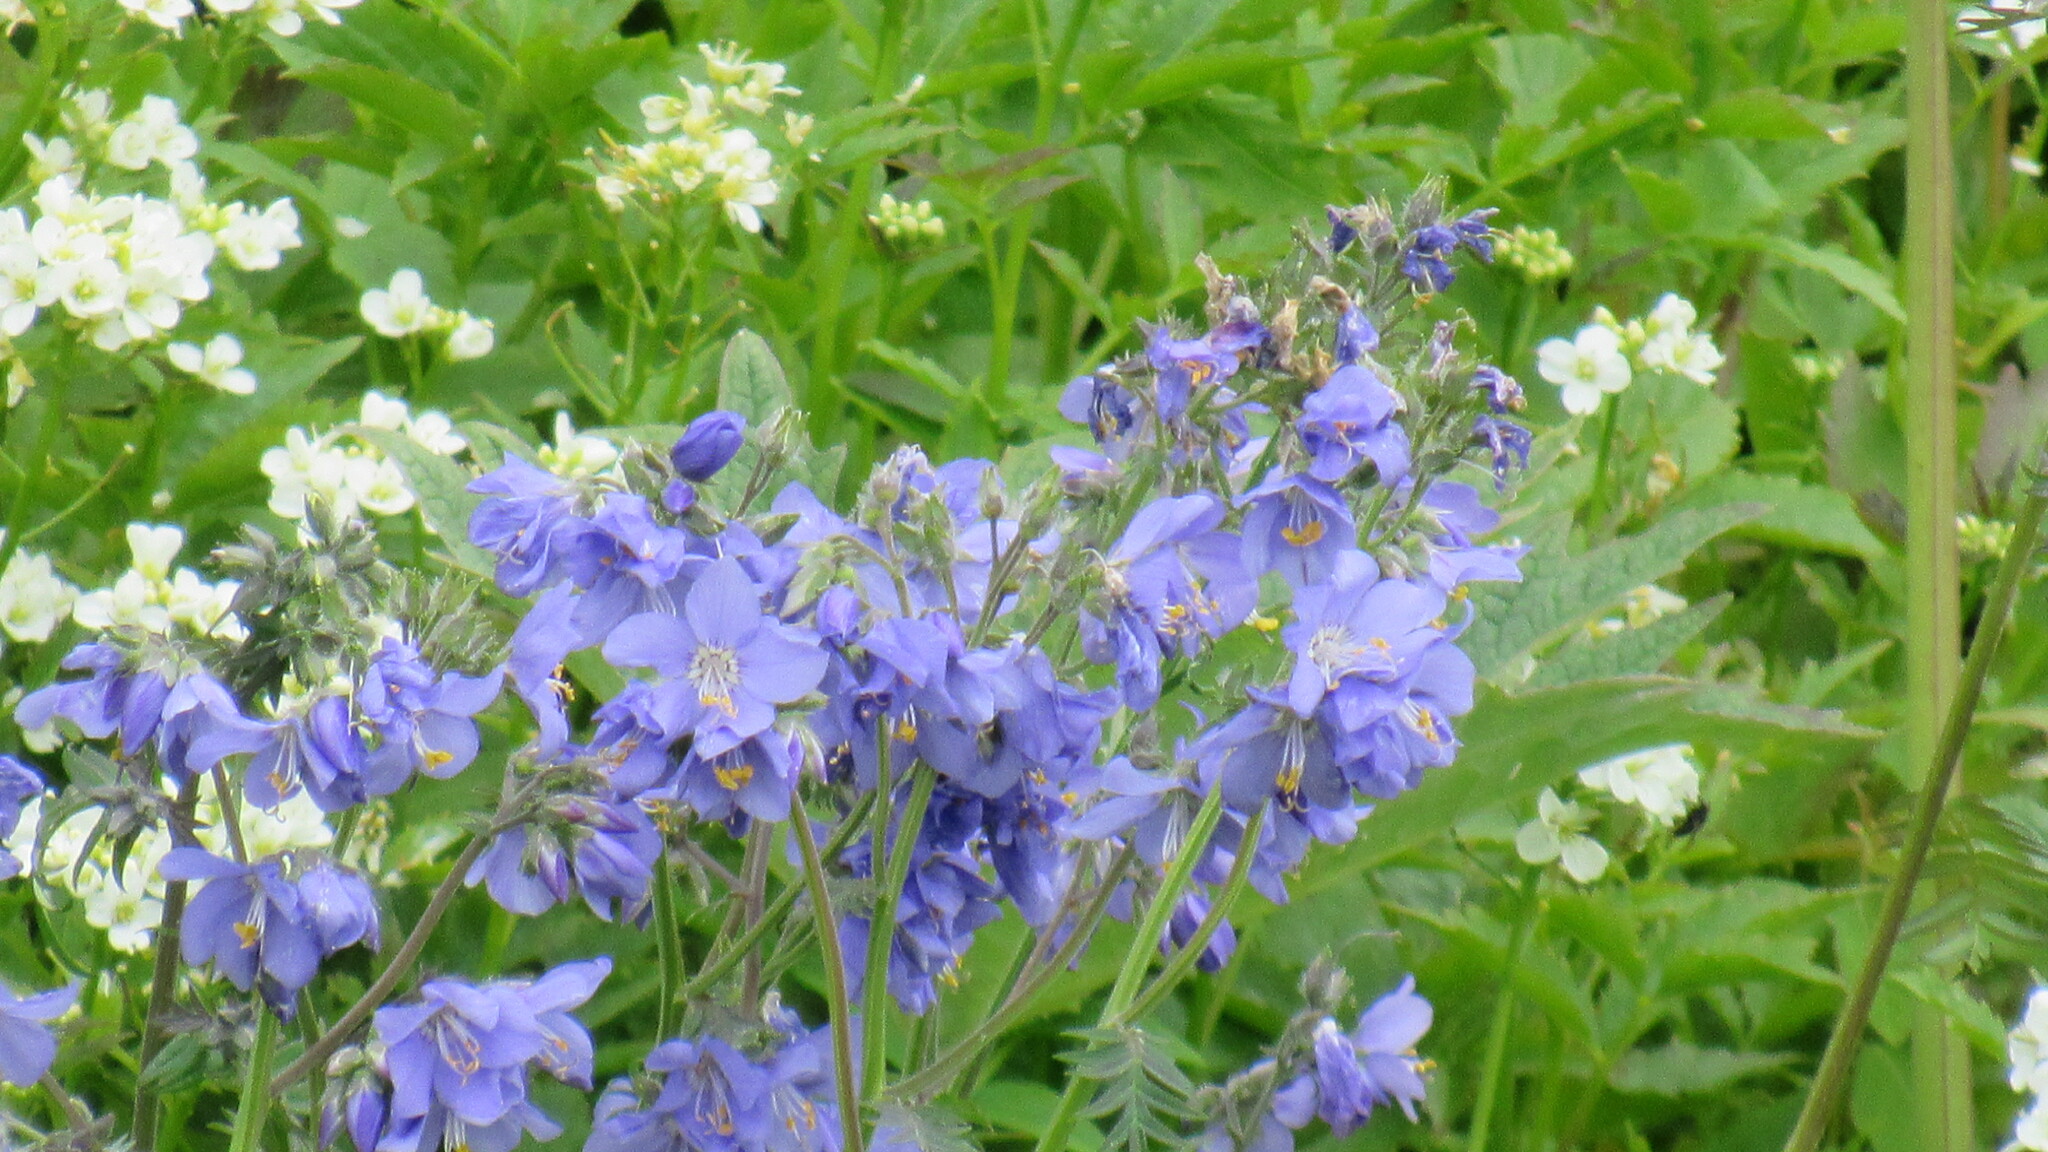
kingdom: Plantae
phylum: Tracheophyta
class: Magnoliopsida
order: Ericales
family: Polemoniaceae
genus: Polemonium
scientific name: Polemonium acutiflorum
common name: Tall jacob's-ladder
